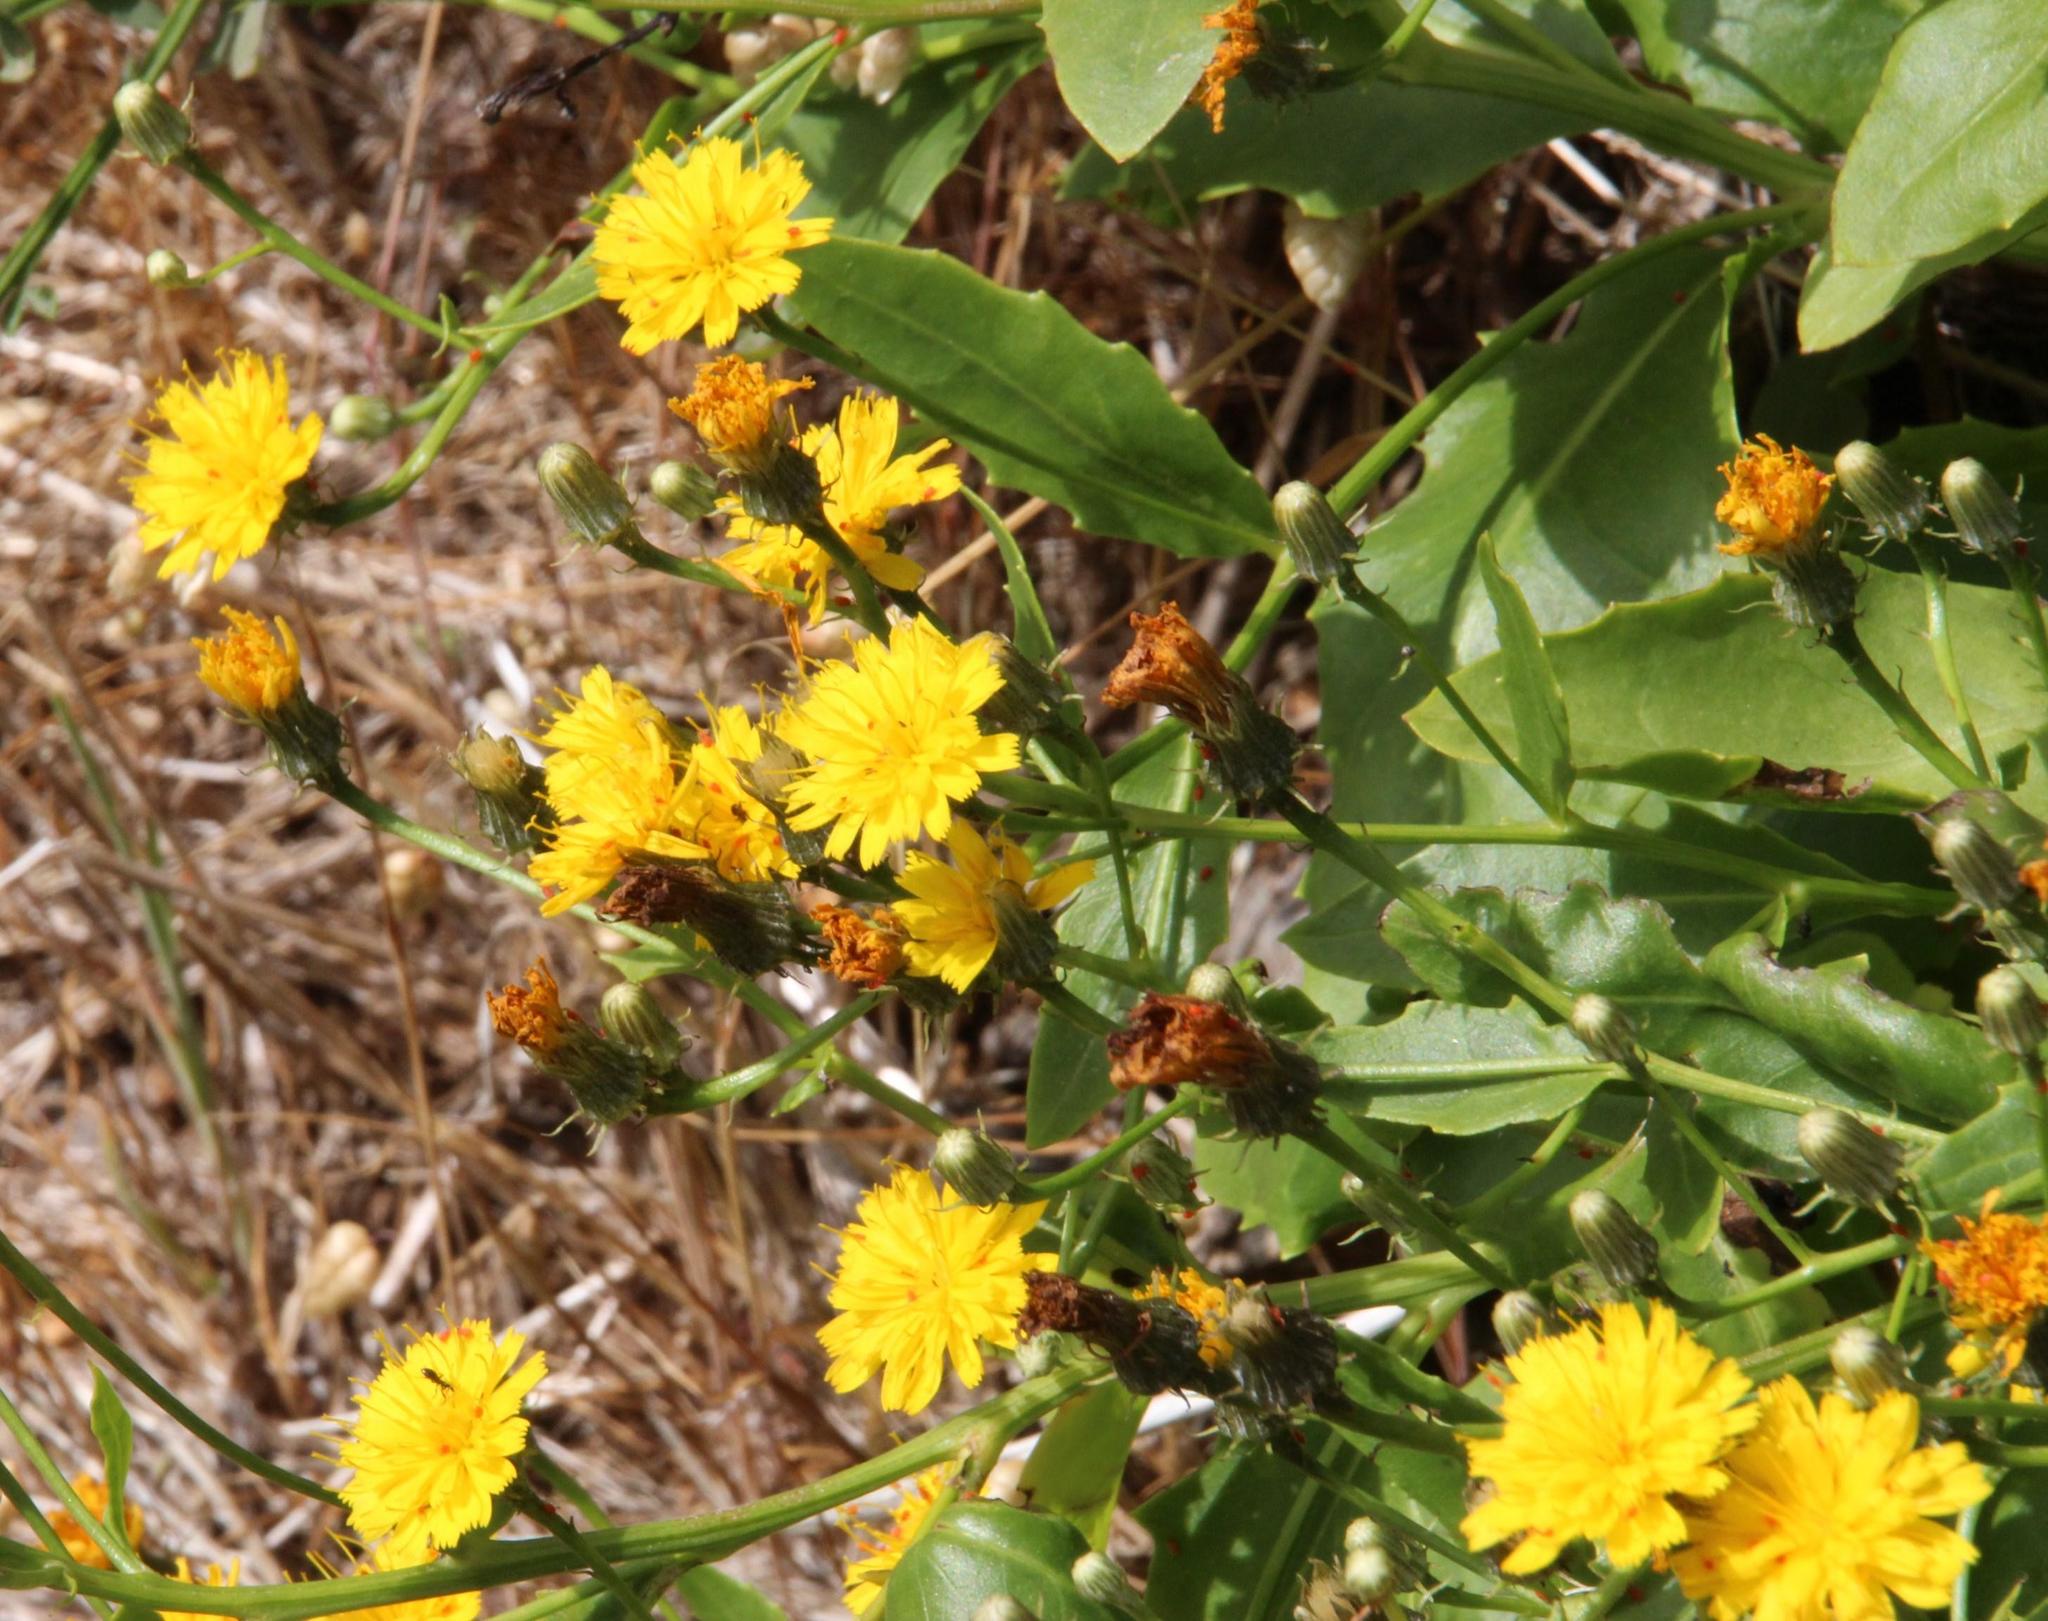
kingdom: Plantae
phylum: Tracheophyta
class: Magnoliopsida
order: Asterales
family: Asteraceae
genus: Tolpis
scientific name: Tolpis macrorhiza
